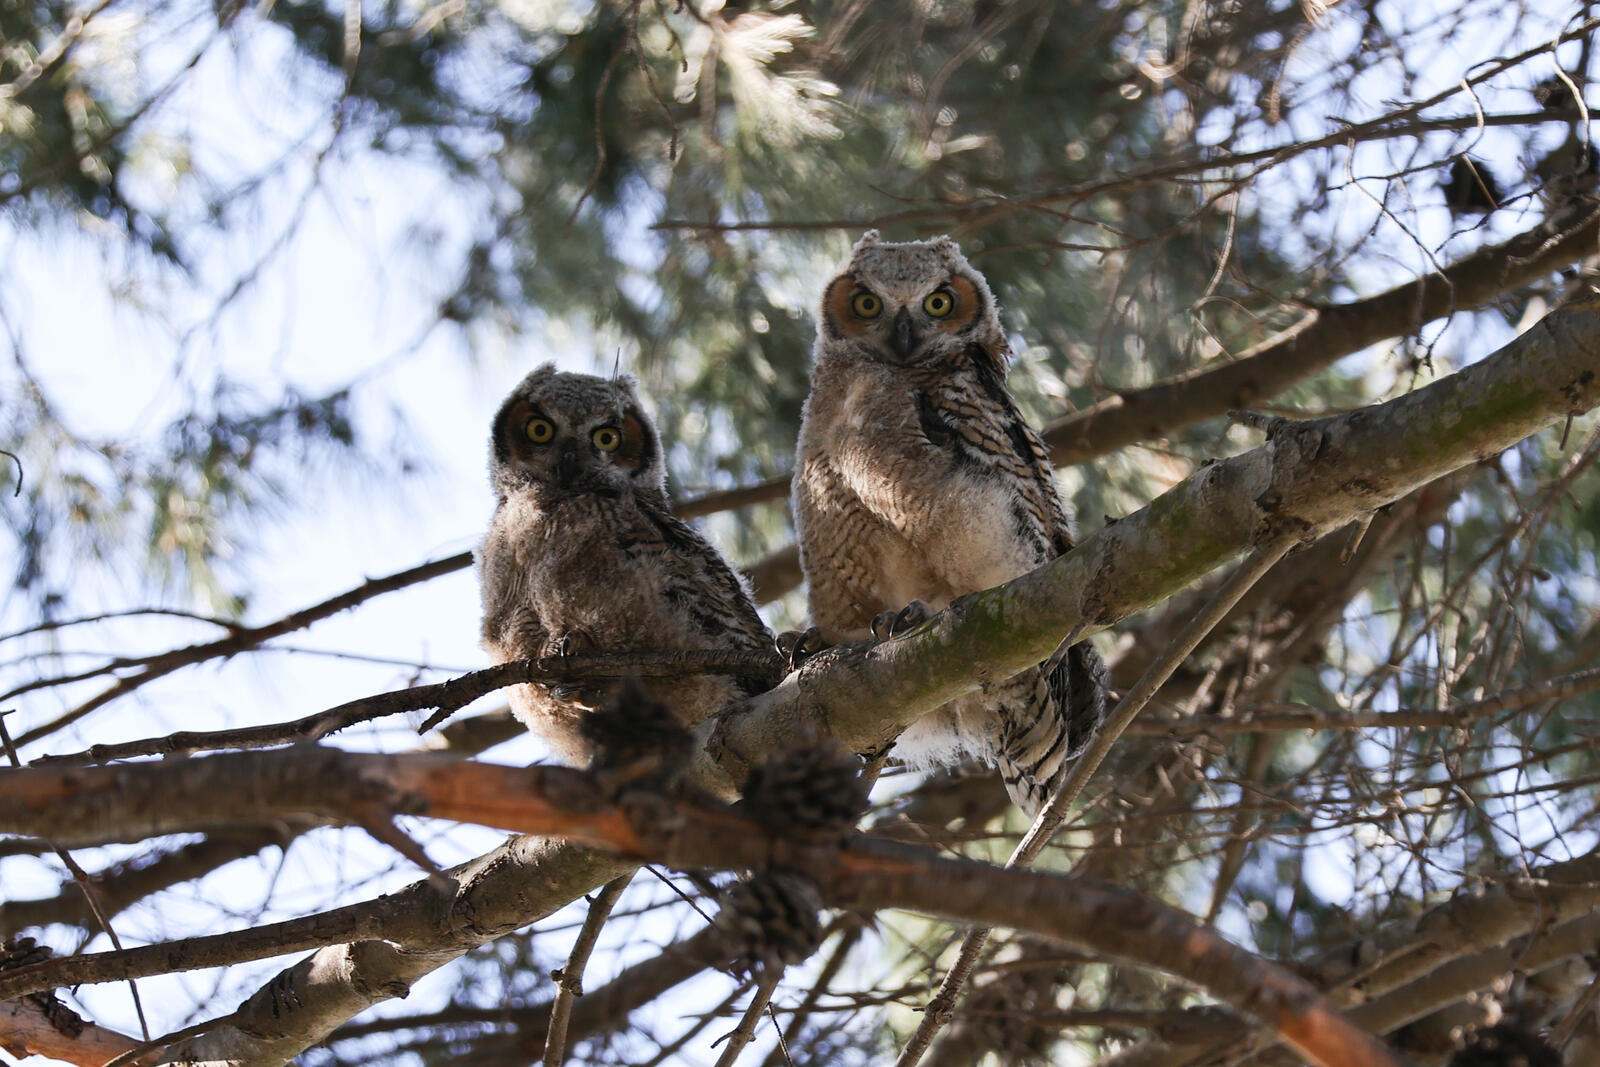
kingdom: Animalia
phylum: Chordata
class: Aves
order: Strigiformes
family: Strigidae
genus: Bubo
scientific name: Bubo virginianus
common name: Great horned owl
